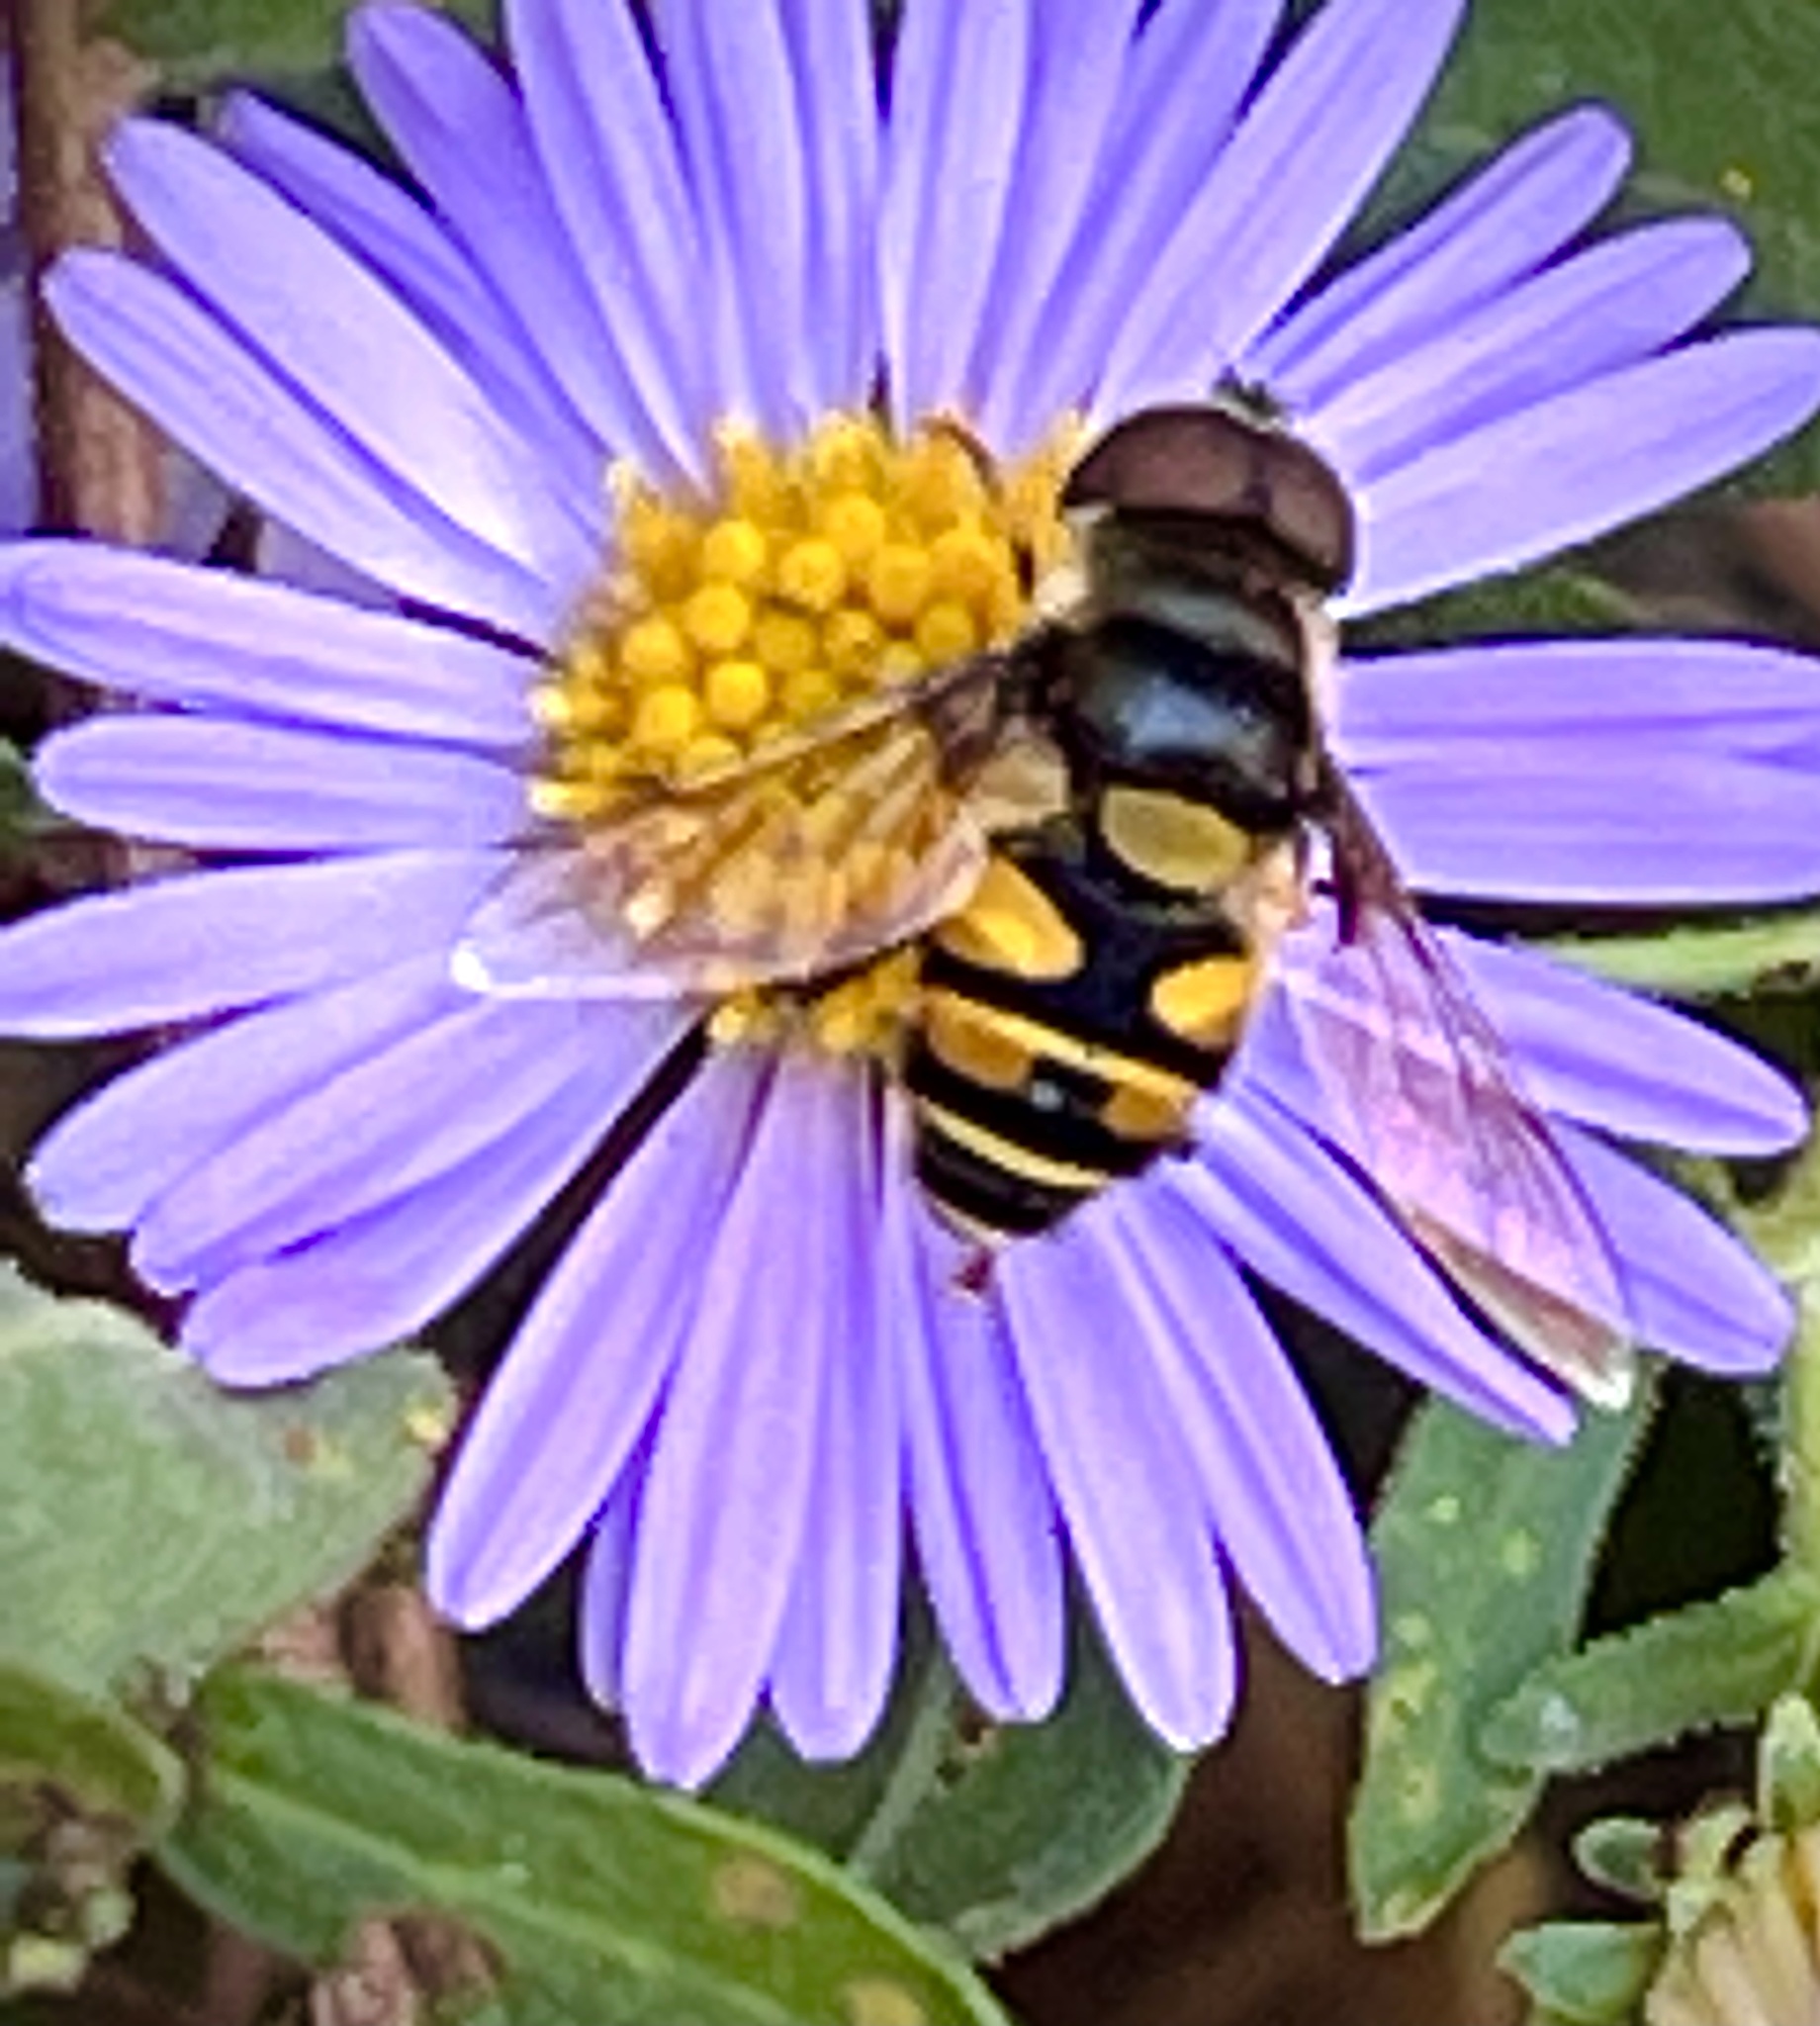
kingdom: Animalia
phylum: Arthropoda
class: Insecta
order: Diptera
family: Syrphidae
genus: Eristalis
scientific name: Eristalis transversa
